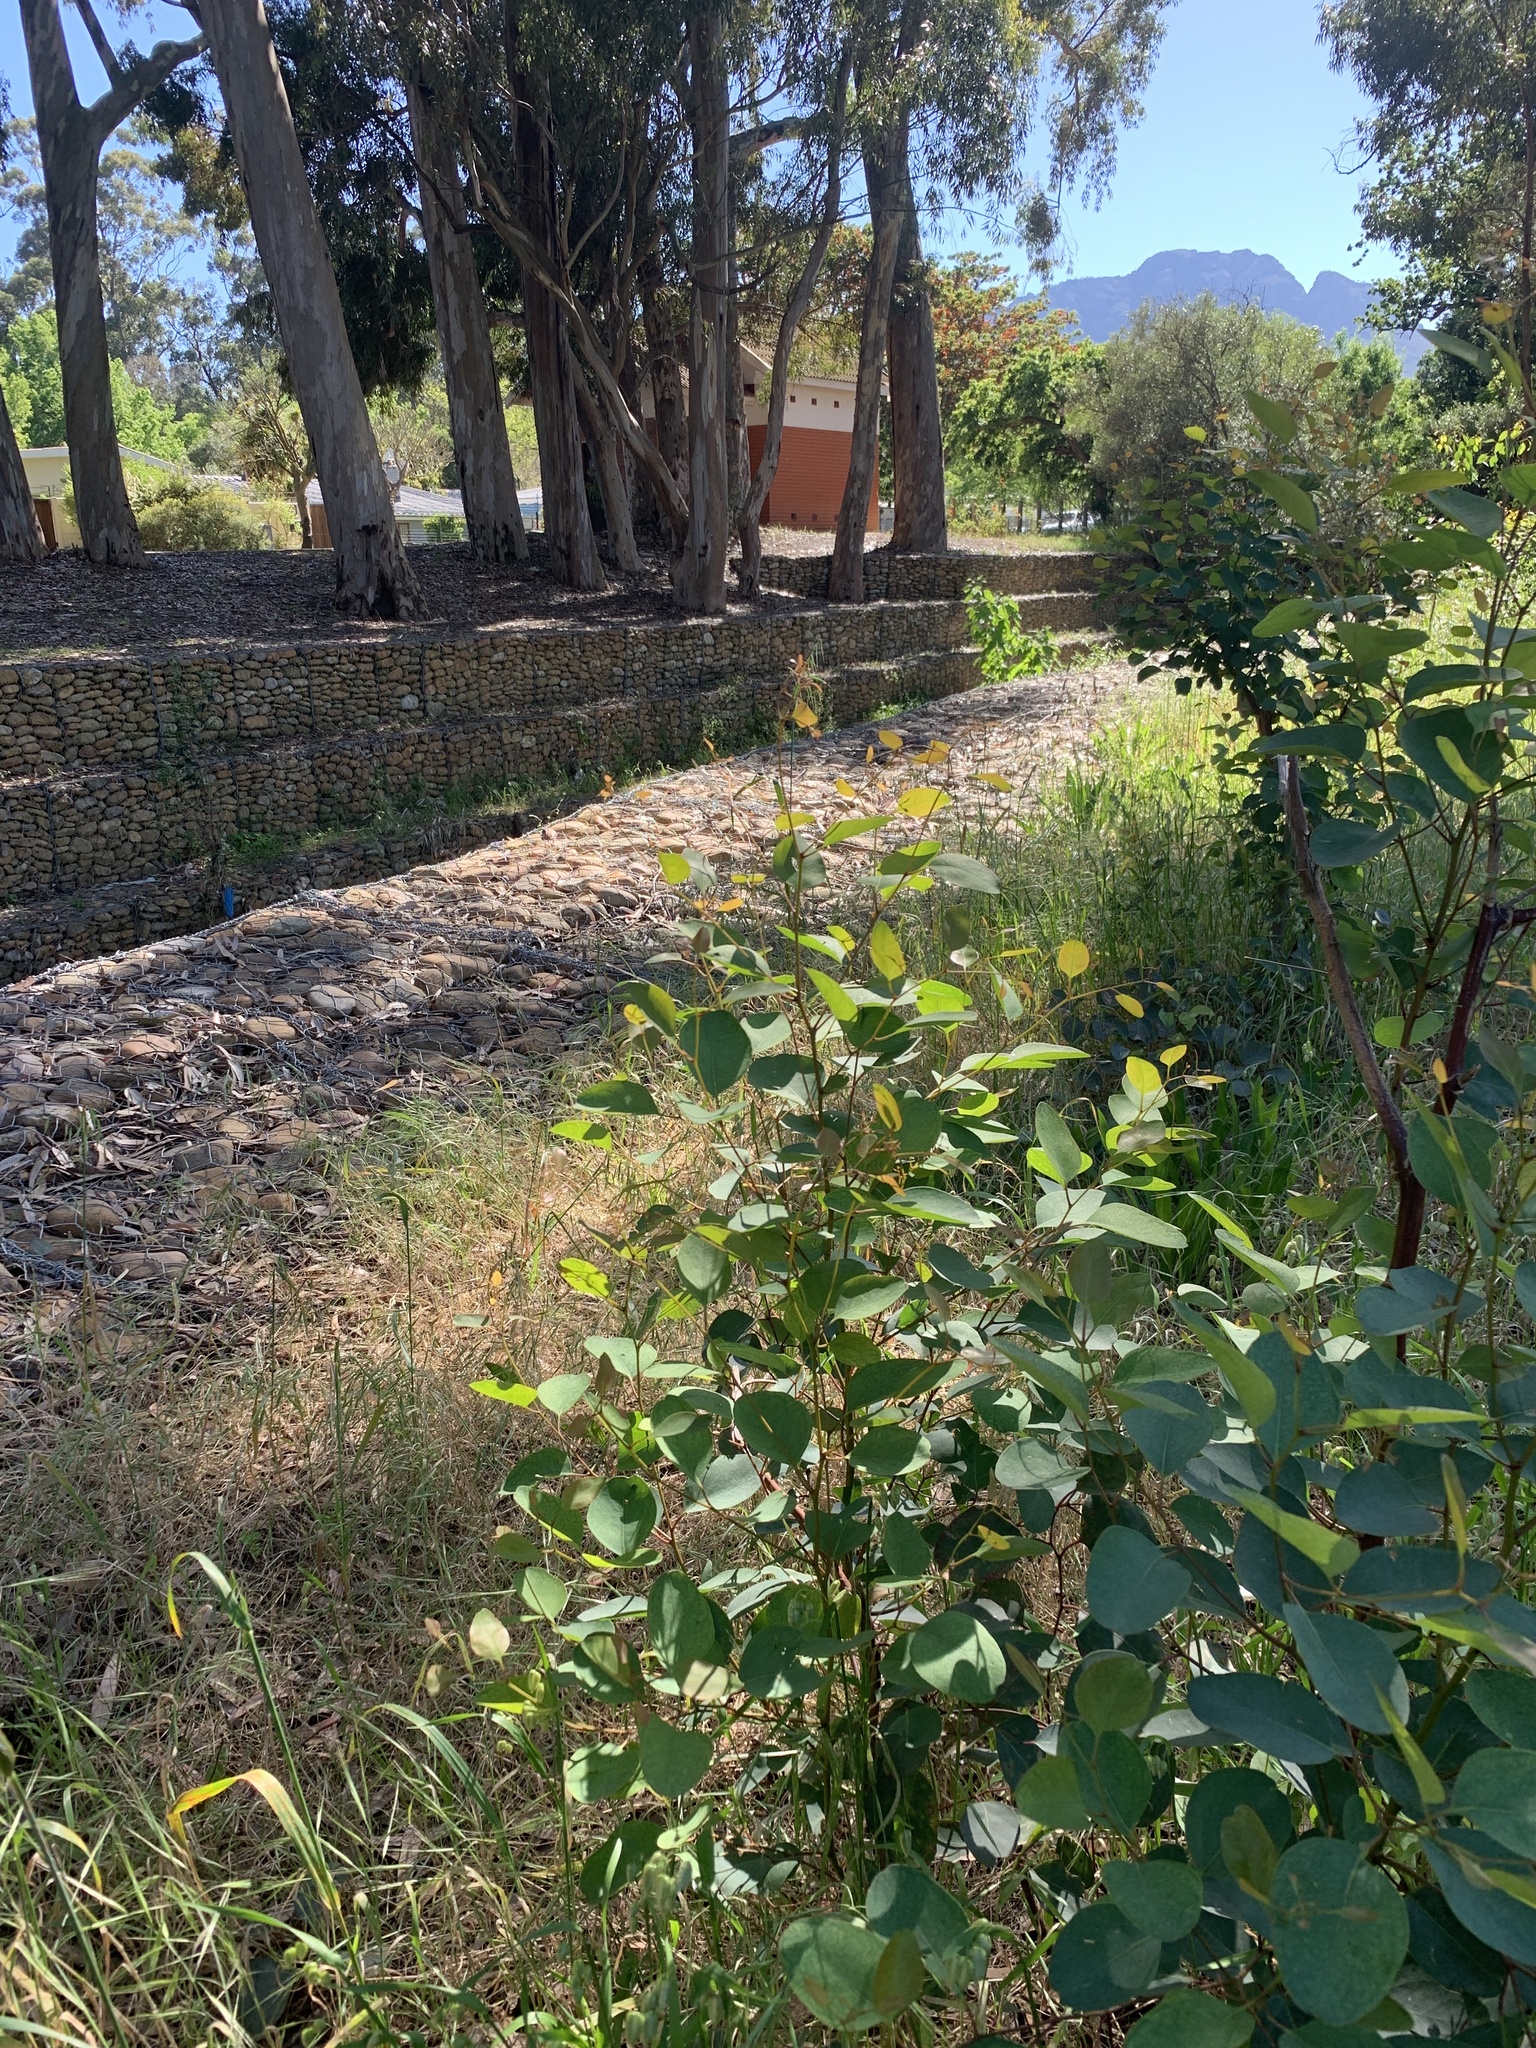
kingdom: Plantae
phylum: Tracheophyta
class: Magnoliopsida
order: Myrtales
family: Myrtaceae
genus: Eucalyptus
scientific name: Eucalyptus cladocalyx
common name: Sugargum
